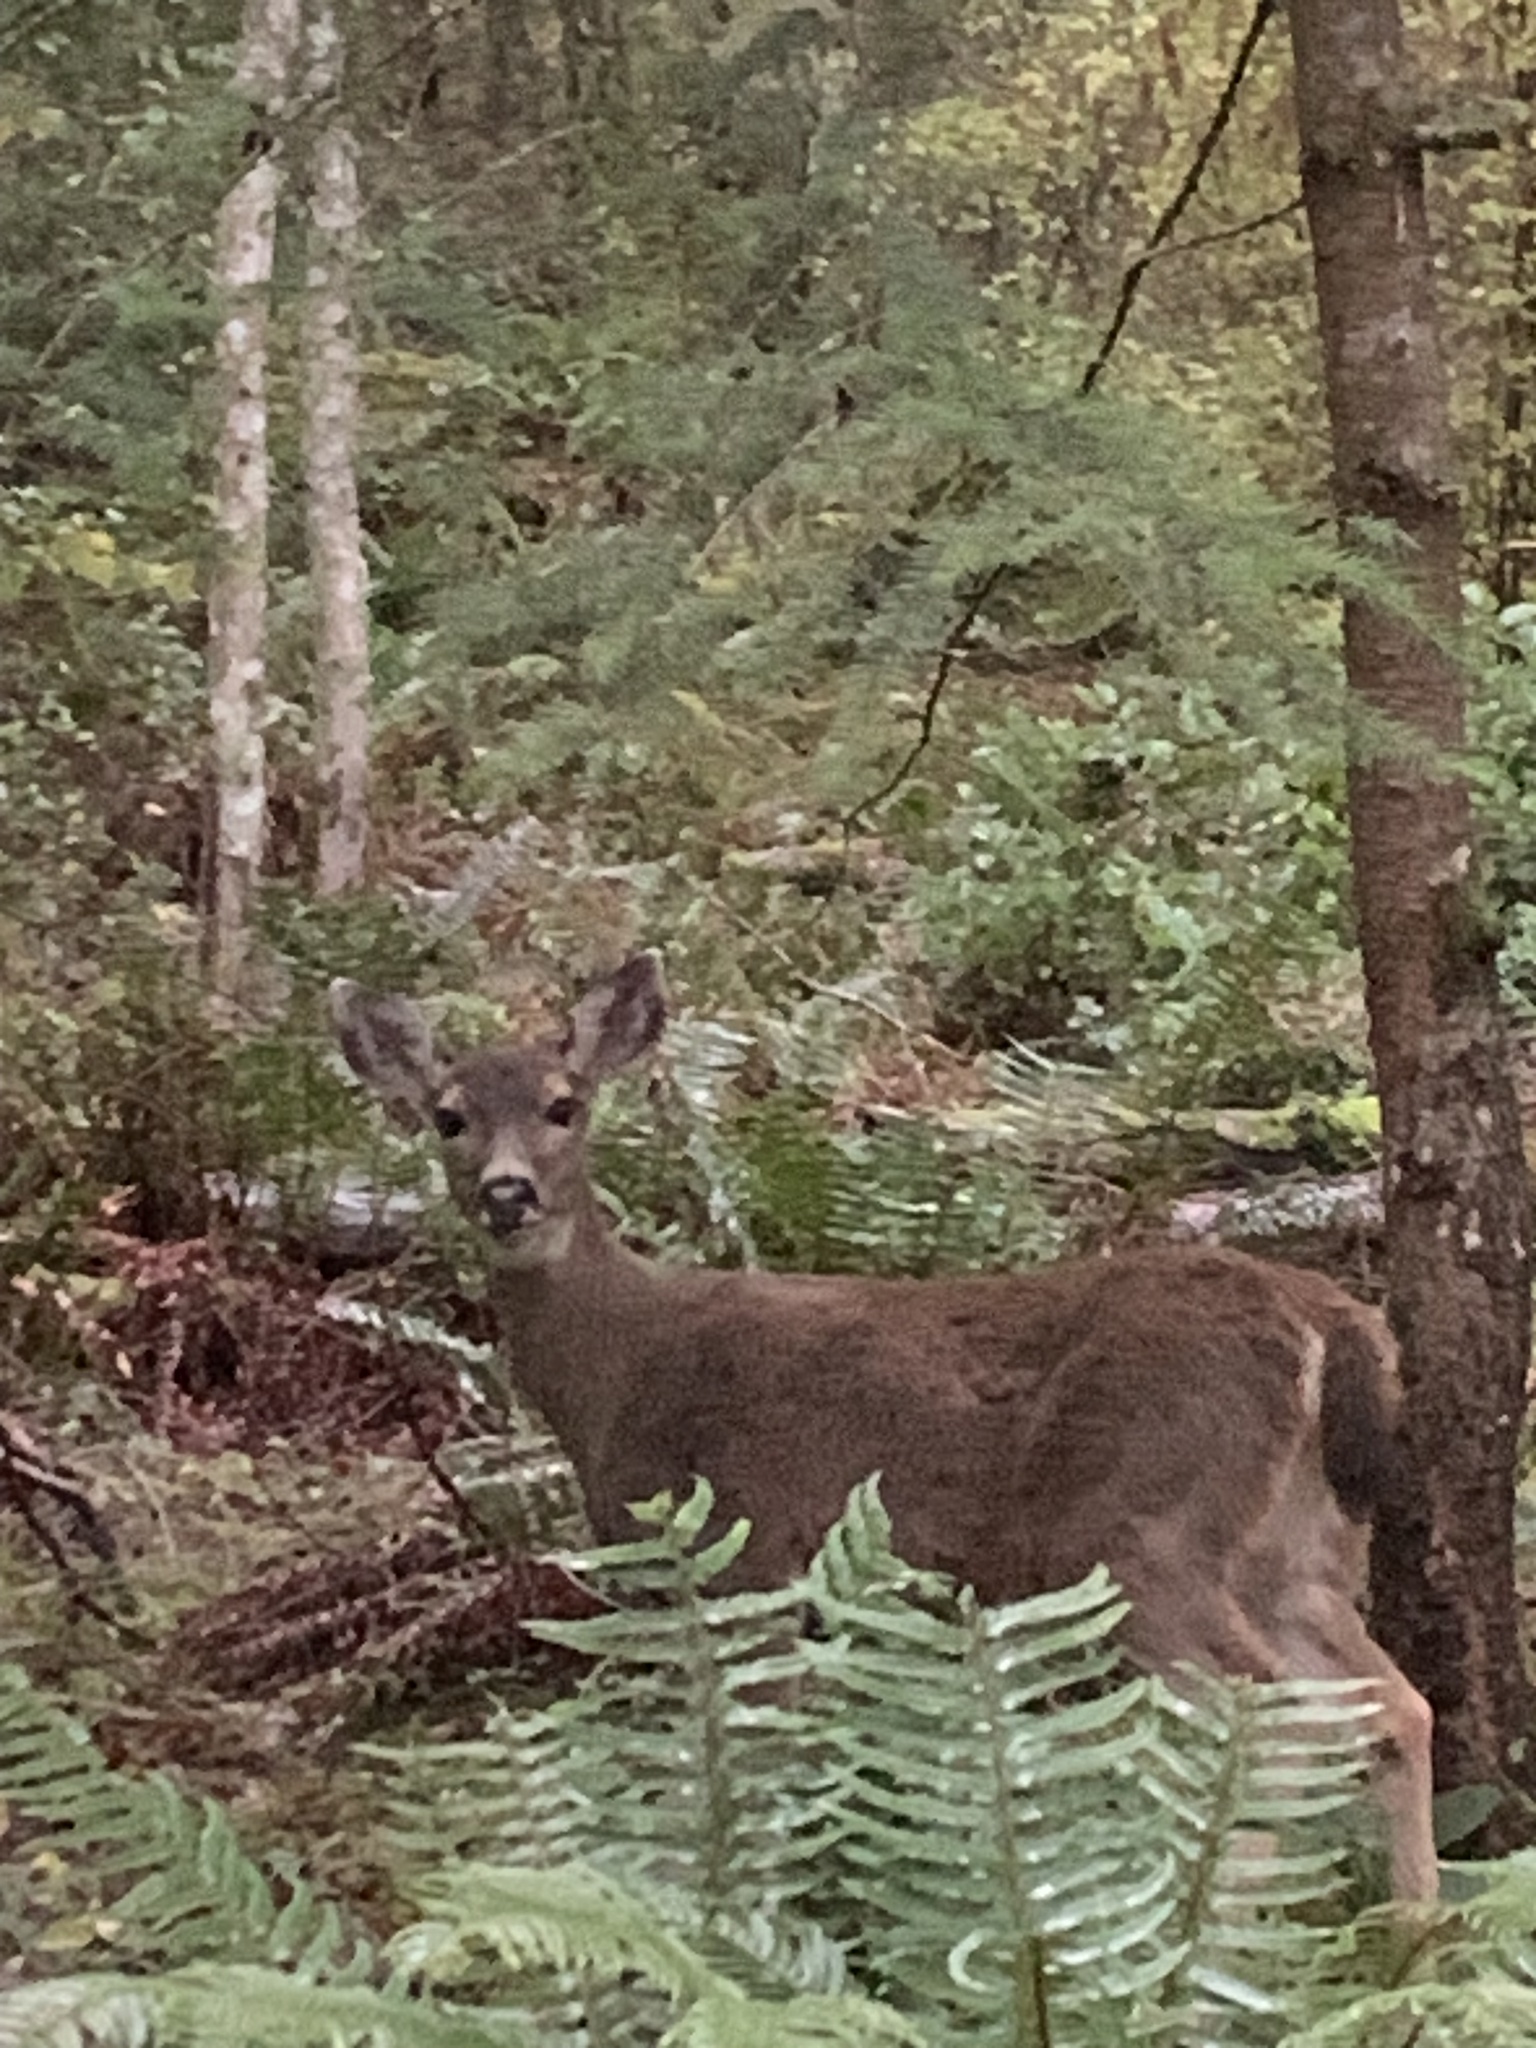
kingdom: Animalia
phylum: Chordata
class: Mammalia
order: Artiodactyla
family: Cervidae
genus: Odocoileus
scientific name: Odocoileus hemionus
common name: Mule deer
